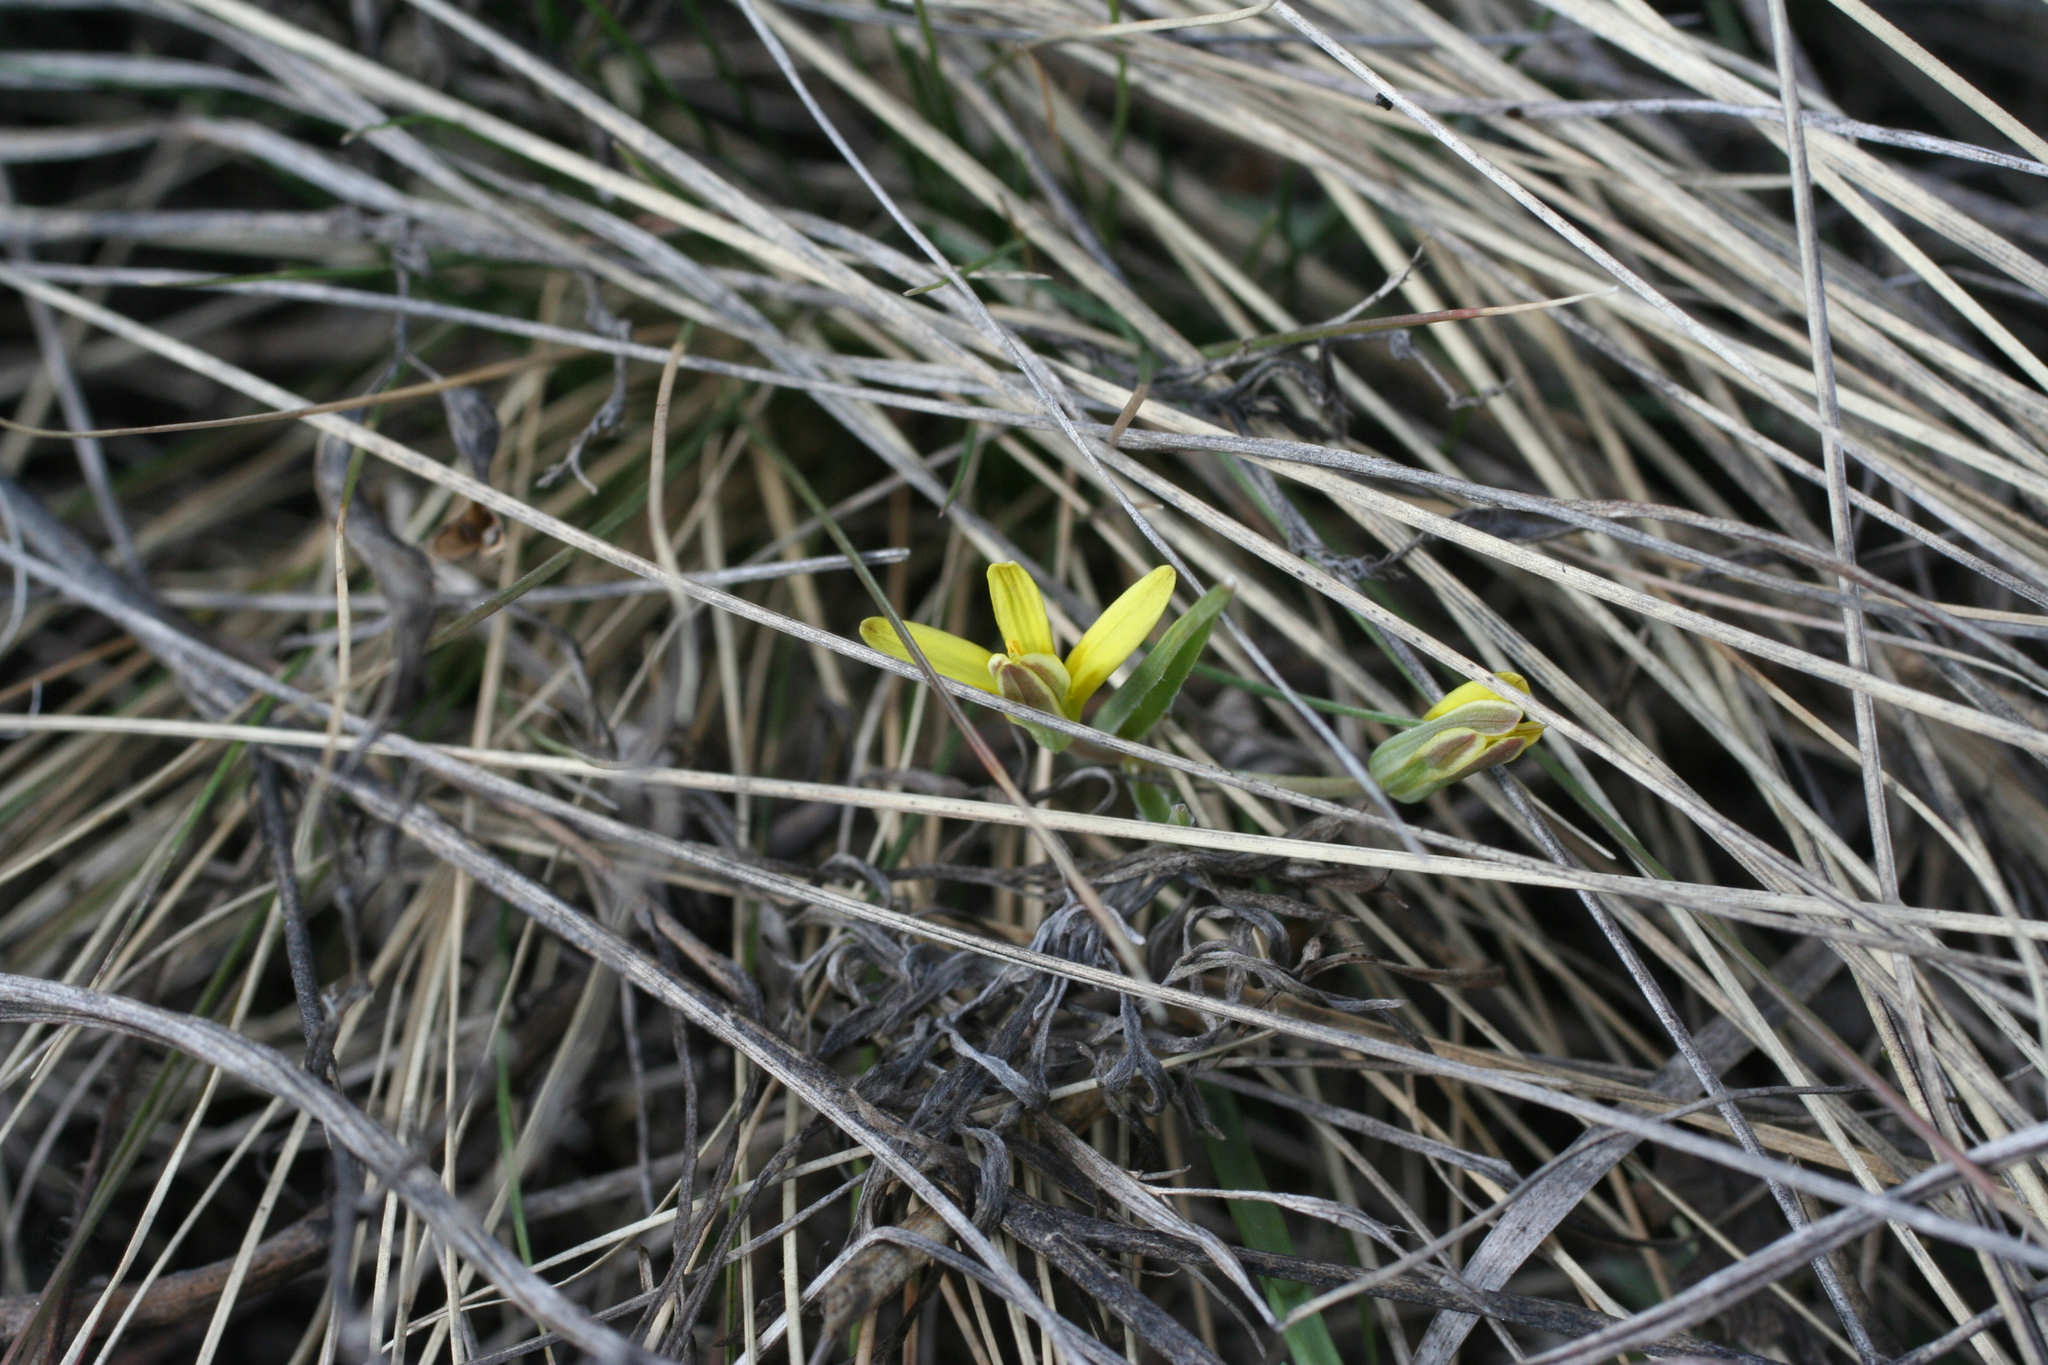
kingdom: Plantae
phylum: Tracheophyta
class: Liliopsida
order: Liliales
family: Liliaceae
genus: Gagea
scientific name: Gagea fedtschenkoana
